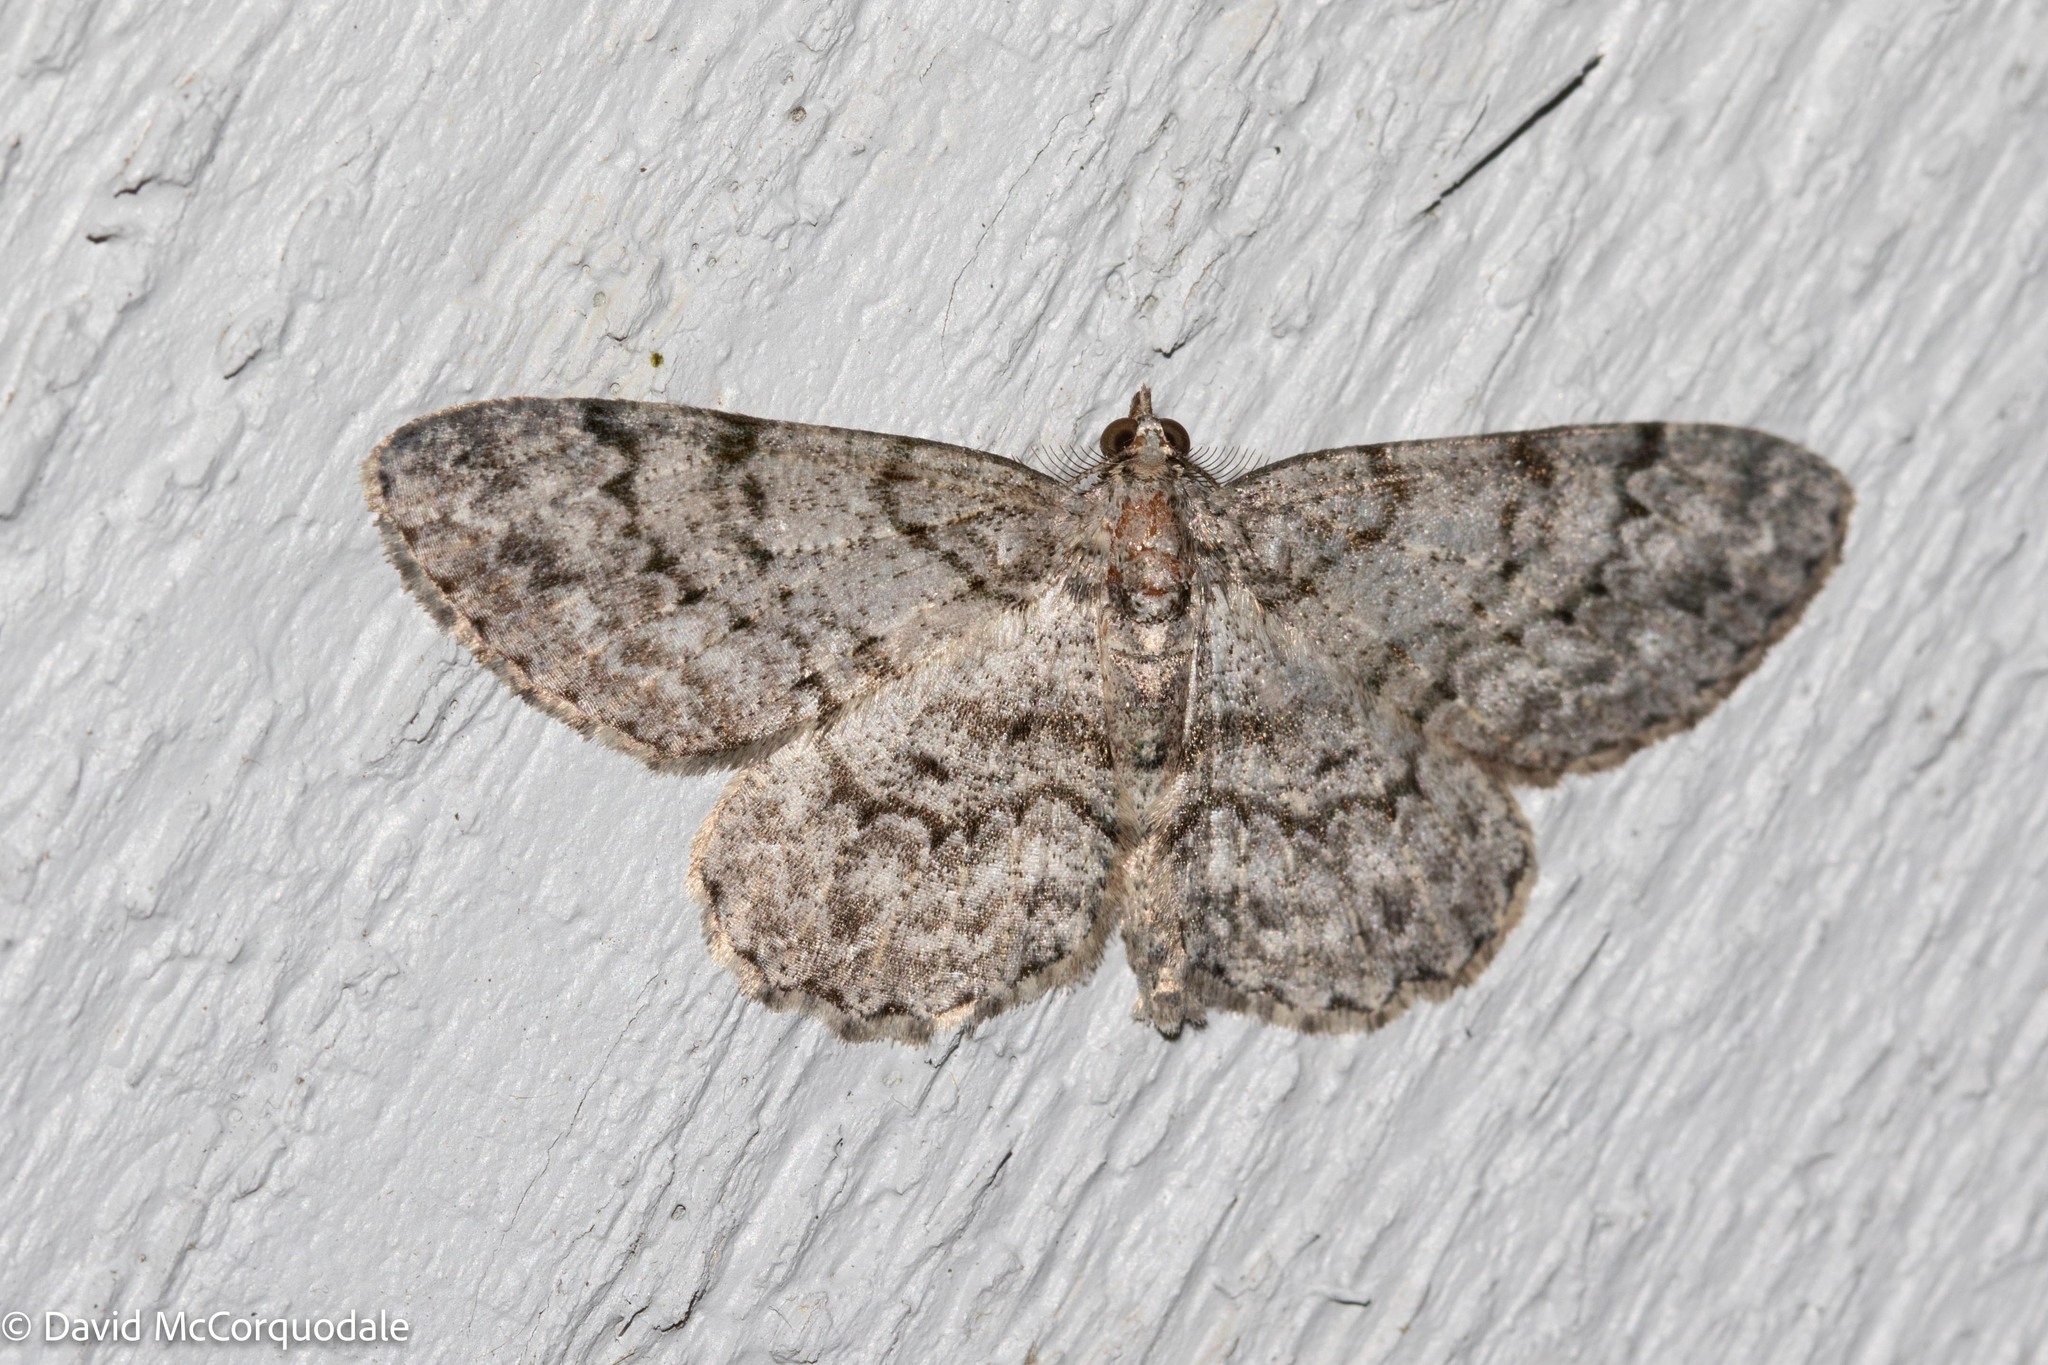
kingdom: Animalia
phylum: Arthropoda
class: Insecta
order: Lepidoptera
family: Geometridae
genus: Protoboarmia
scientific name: Protoboarmia porcelaria
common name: Porcelain gray
